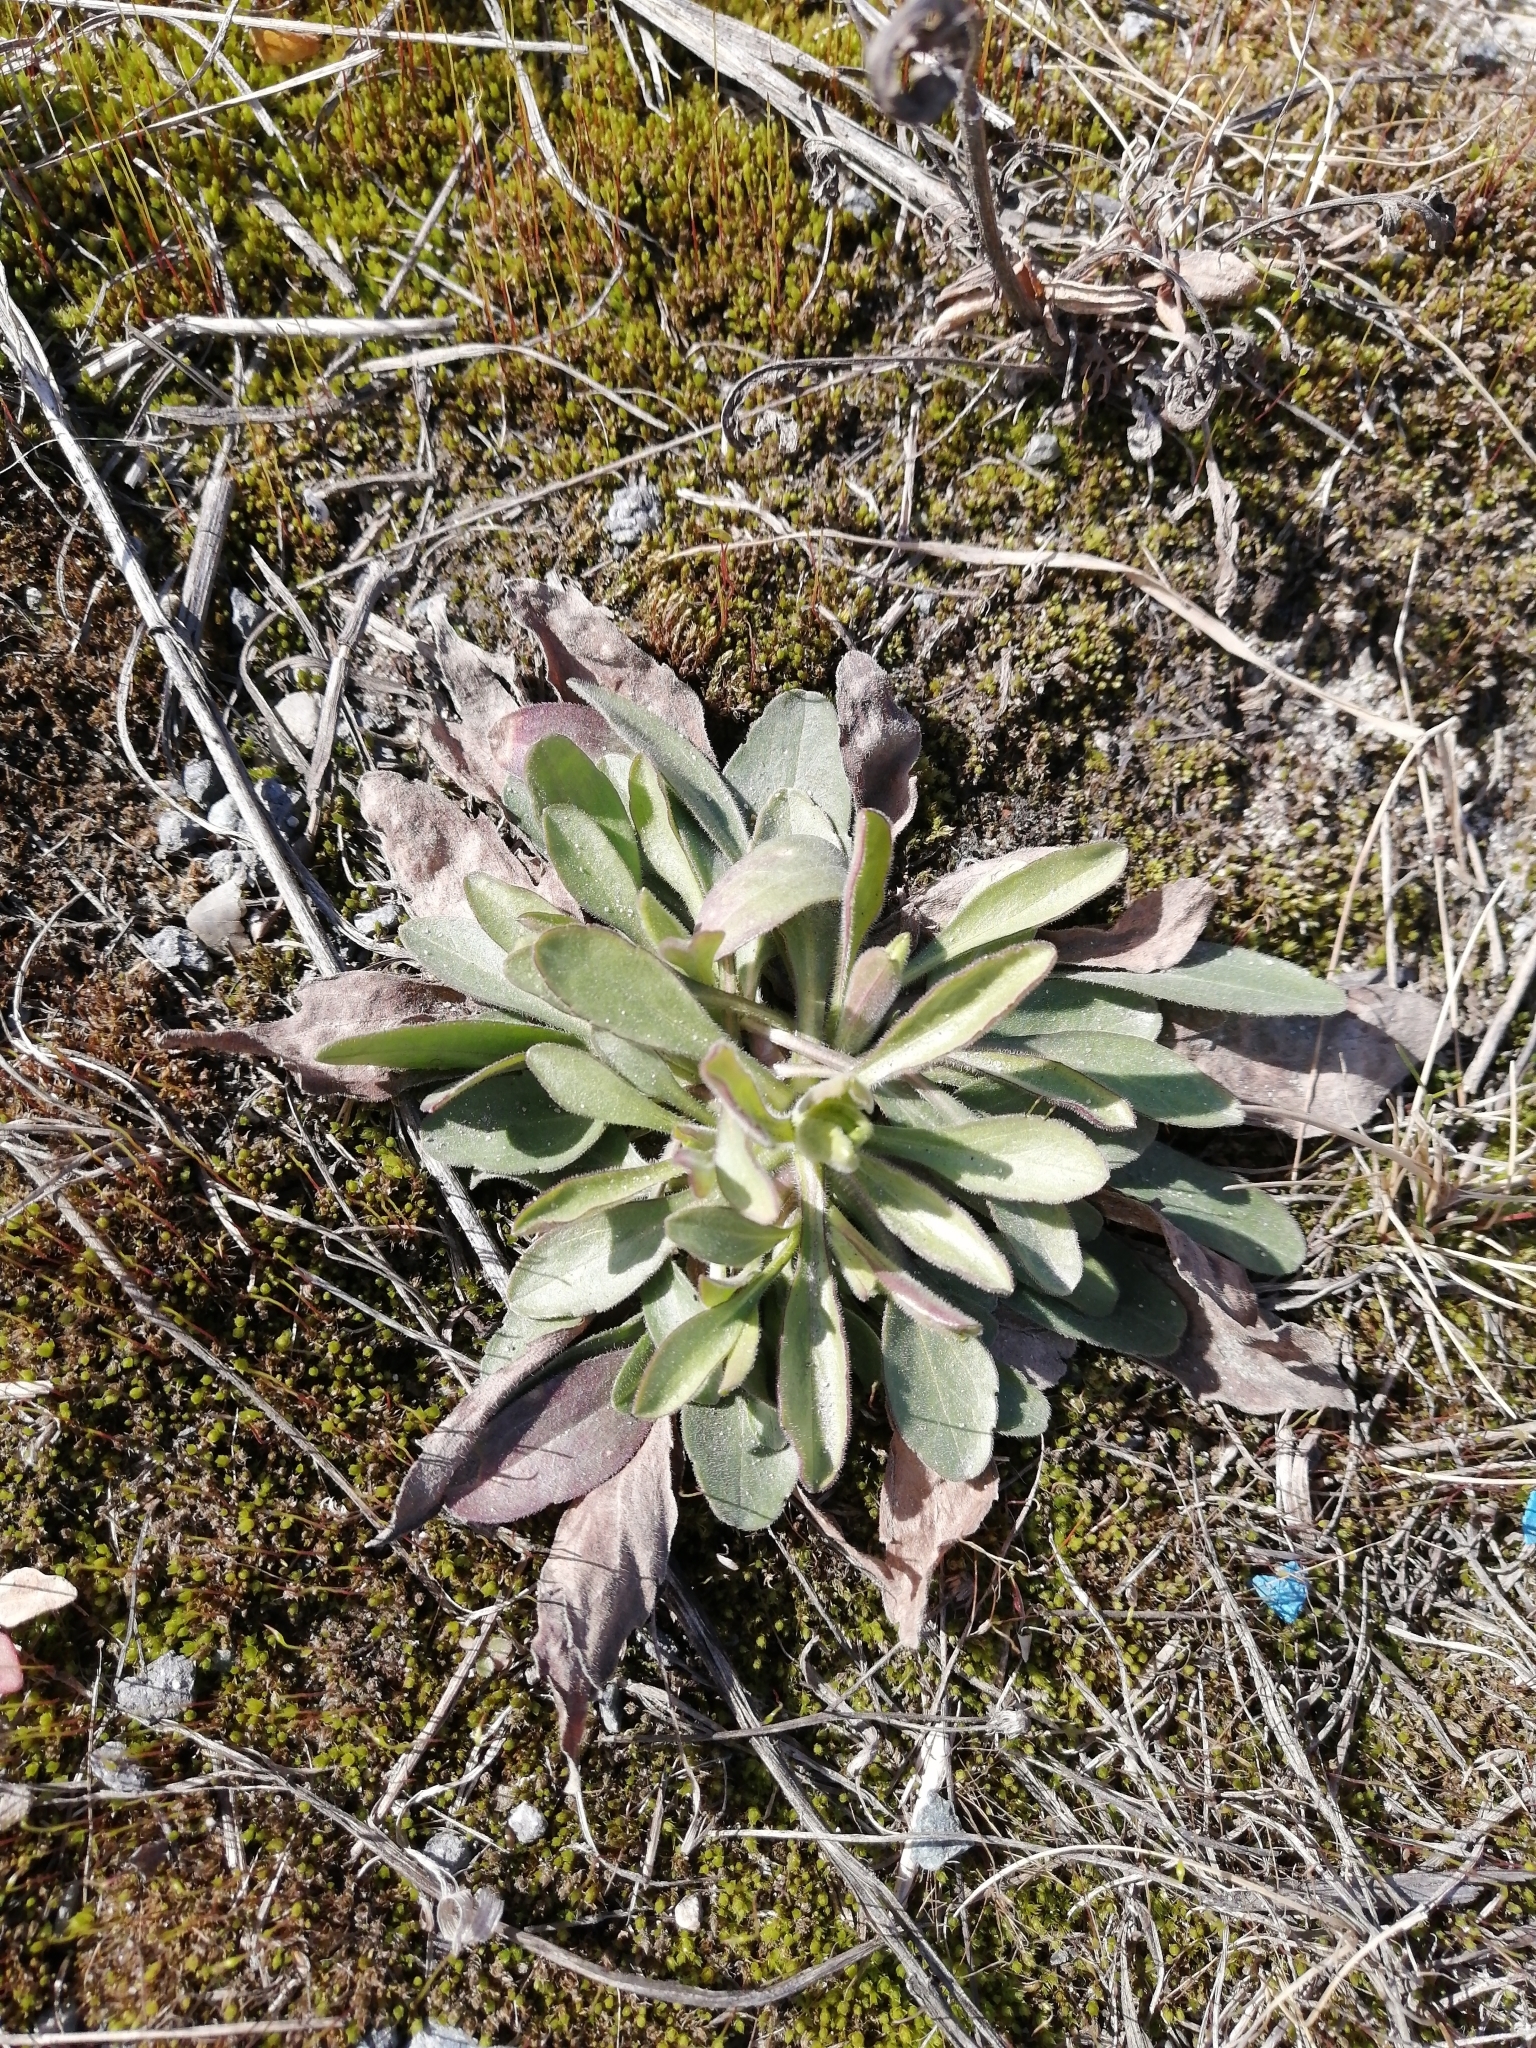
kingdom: Plantae
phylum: Tracheophyta
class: Magnoliopsida
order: Asterales
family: Asteraceae
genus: Erigeron
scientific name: Erigeron canadensis
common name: Canadian fleabane
